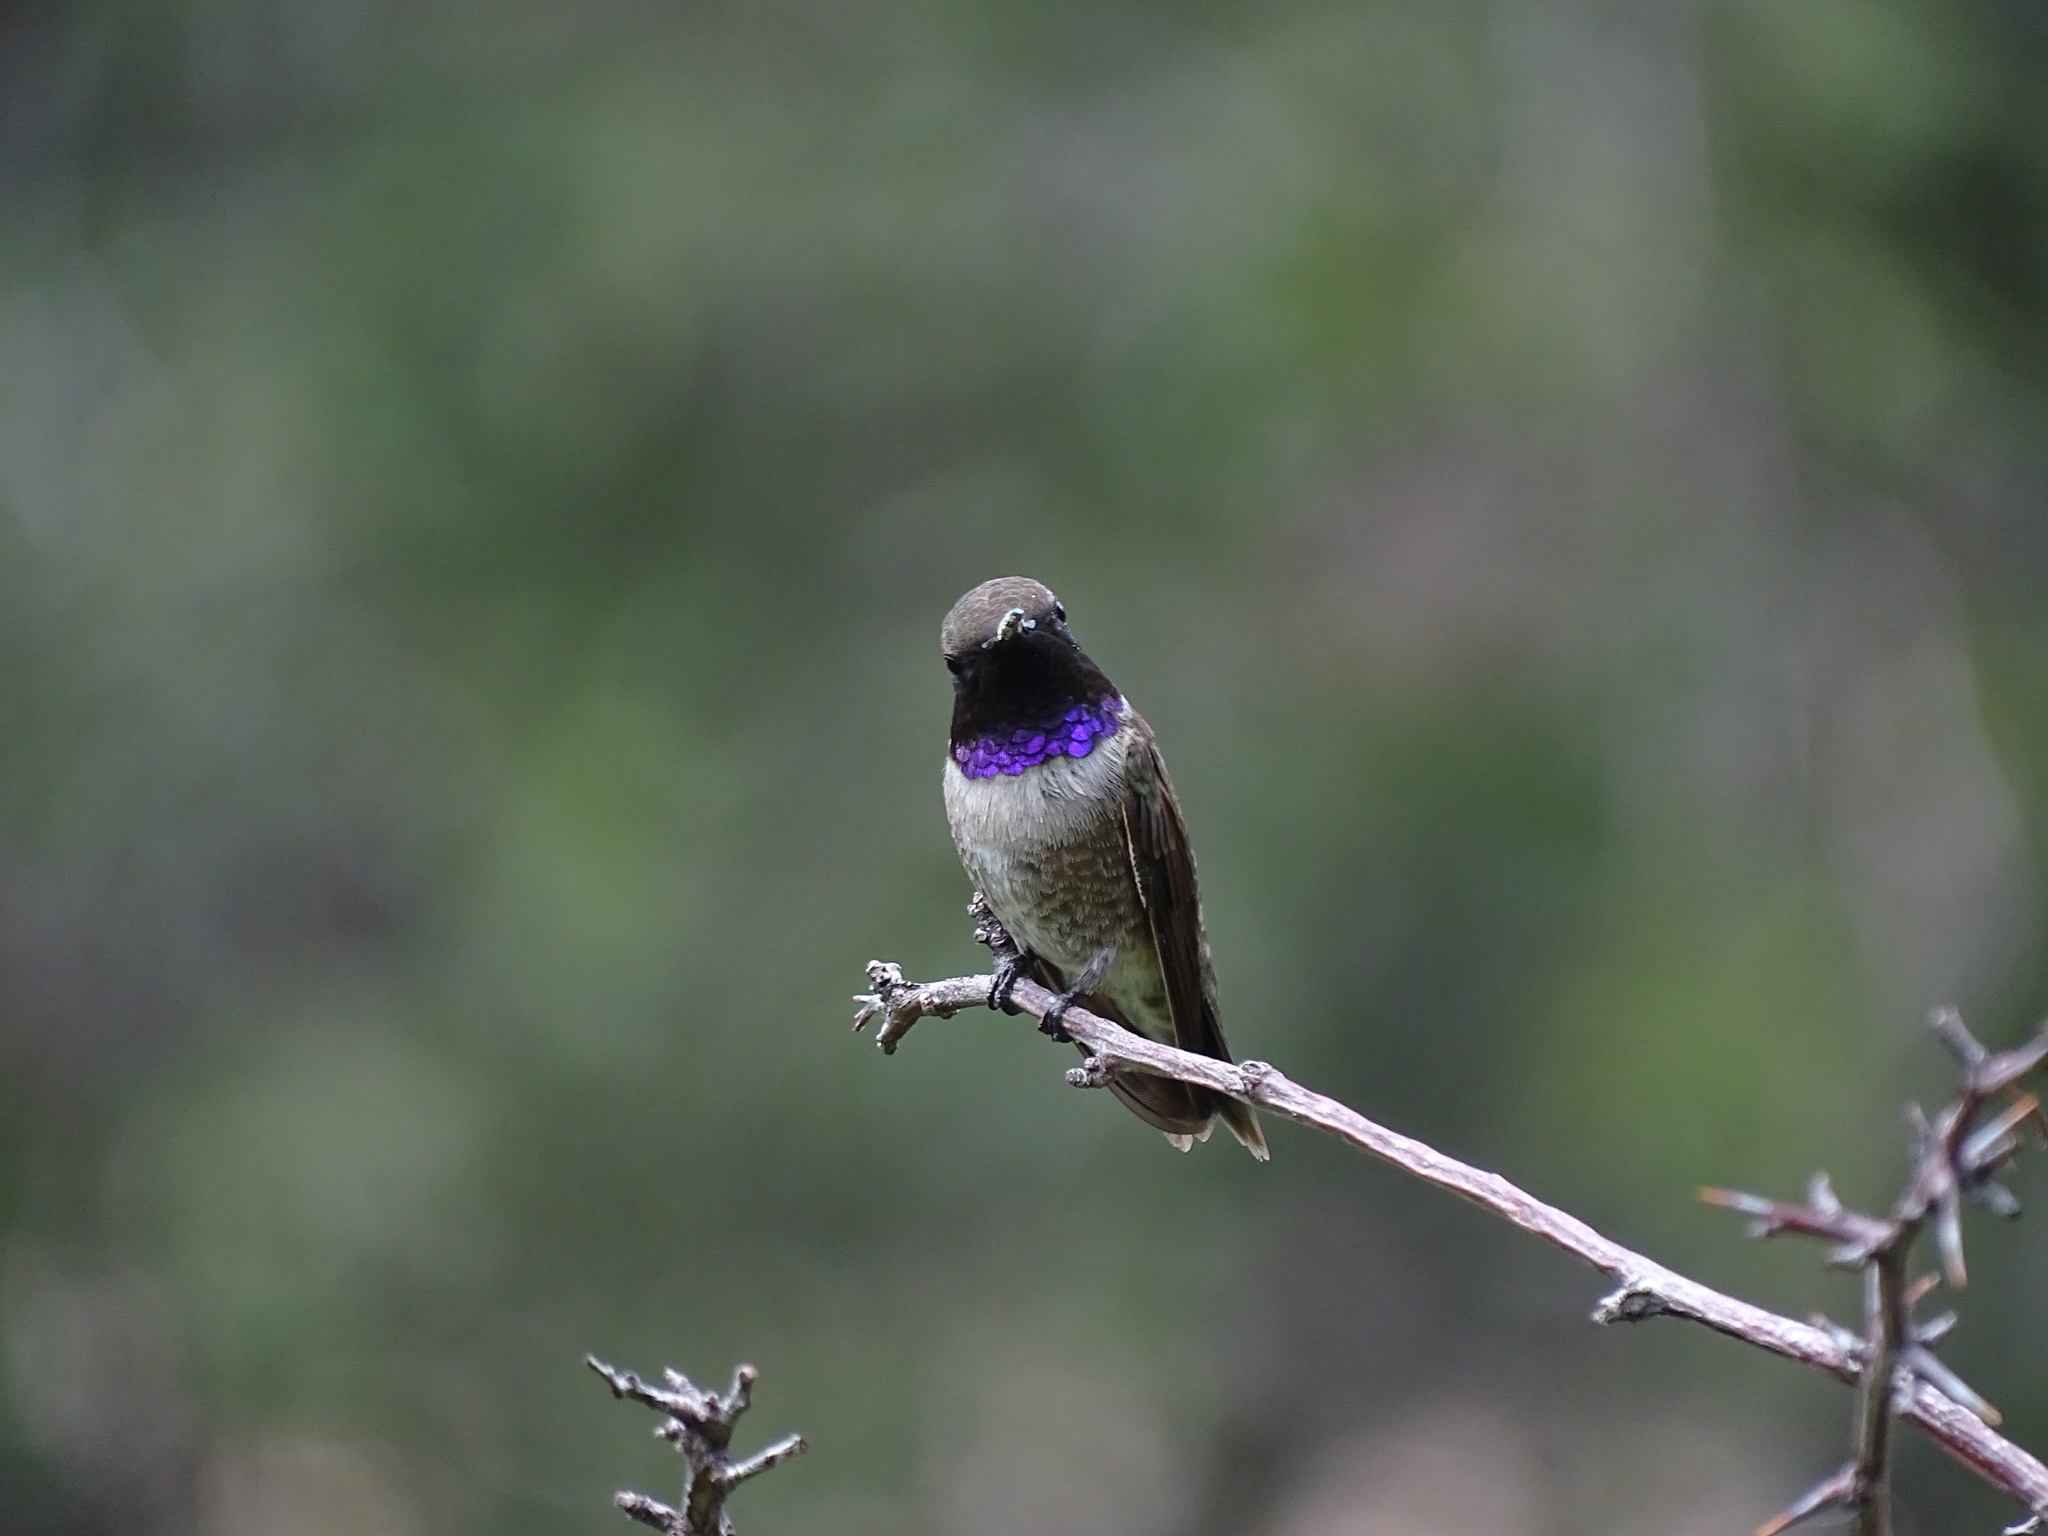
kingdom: Animalia
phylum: Chordata
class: Aves
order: Apodiformes
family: Trochilidae
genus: Archilochus
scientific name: Archilochus alexandri
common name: Black-chinned hummingbird
